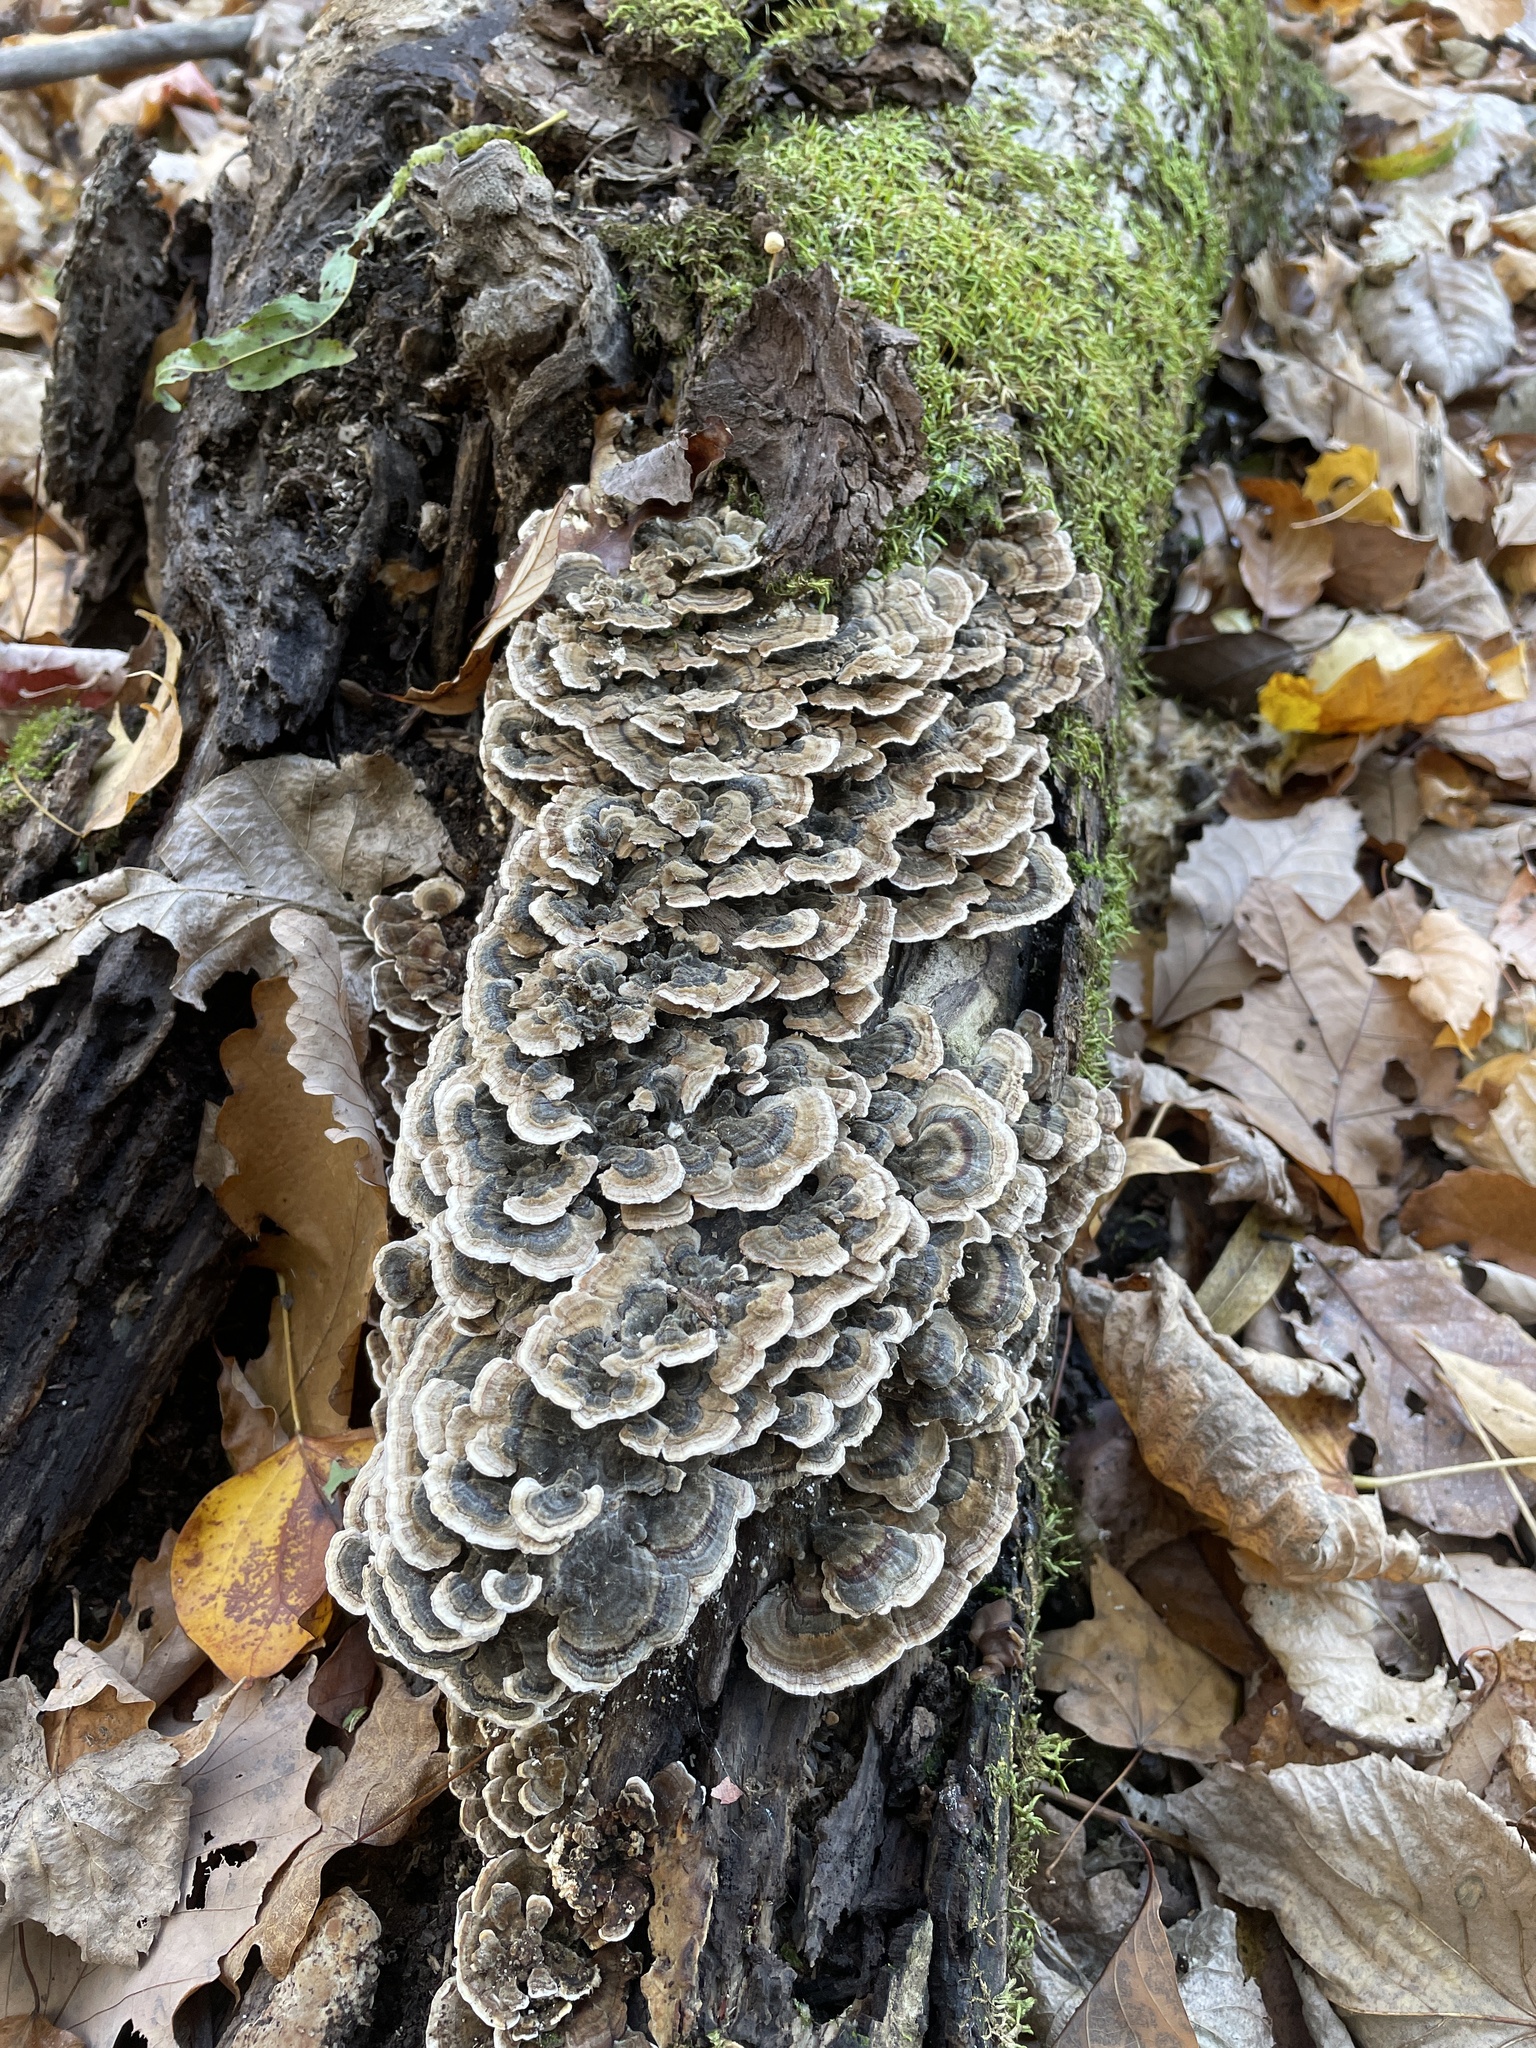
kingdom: Fungi
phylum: Basidiomycota
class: Agaricomycetes
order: Polyporales
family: Polyporaceae
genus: Trametes
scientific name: Trametes versicolor
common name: Turkeytail
